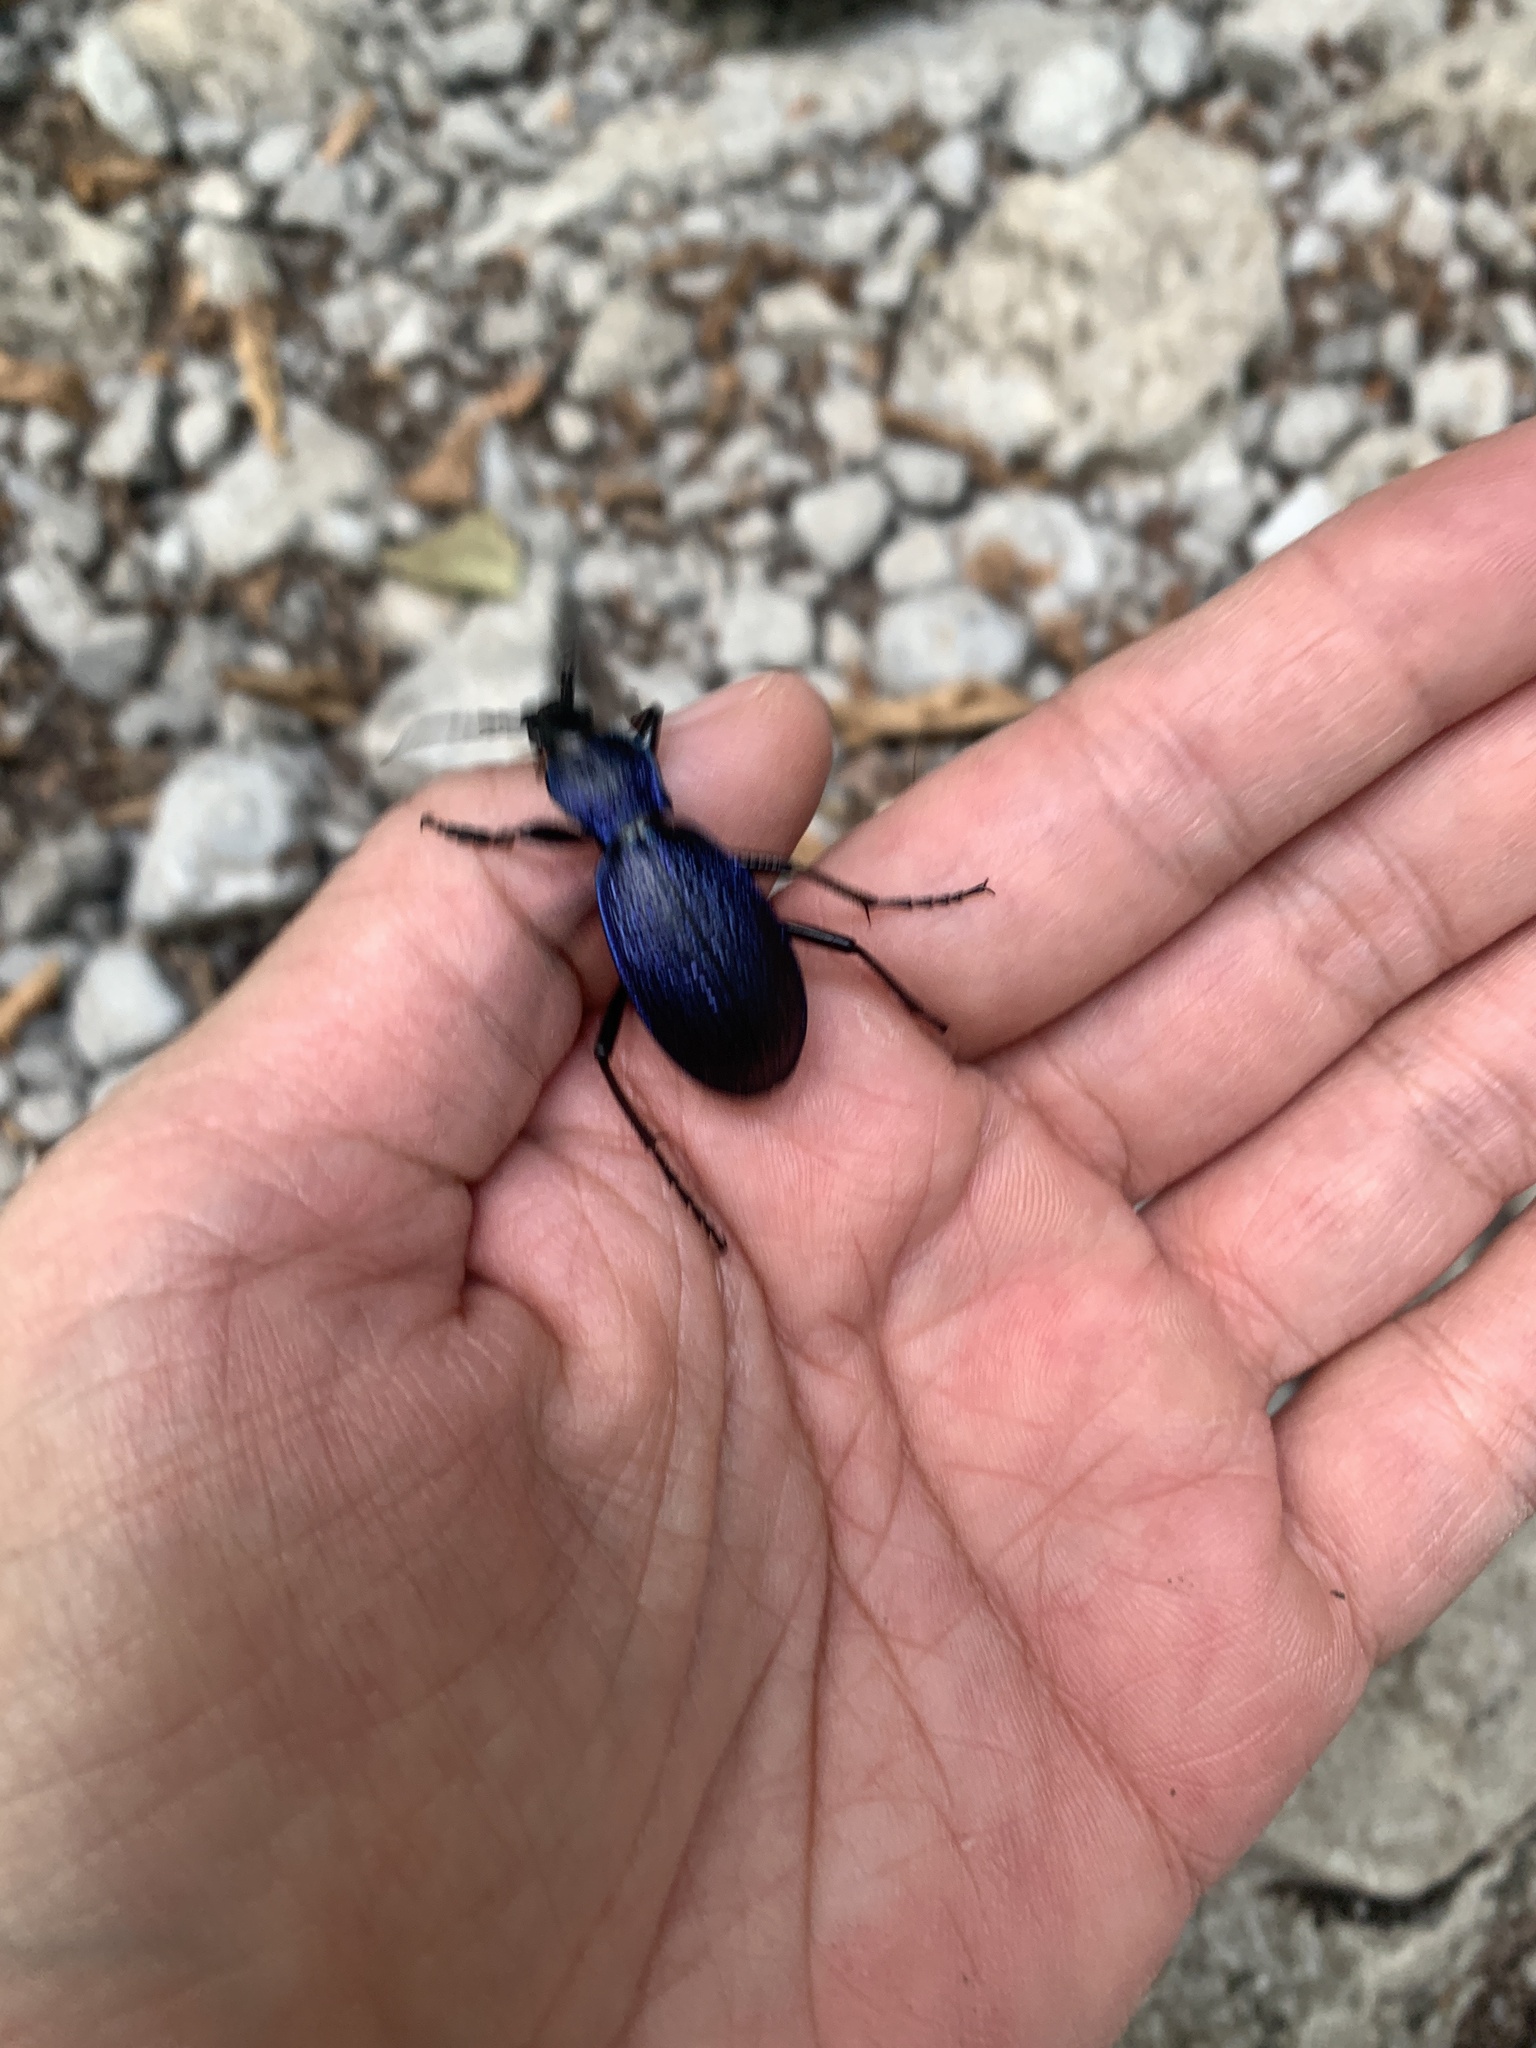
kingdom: Animalia
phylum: Arthropoda
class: Insecta
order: Coleoptera
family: Carabidae
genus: Carabus
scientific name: Carabus
